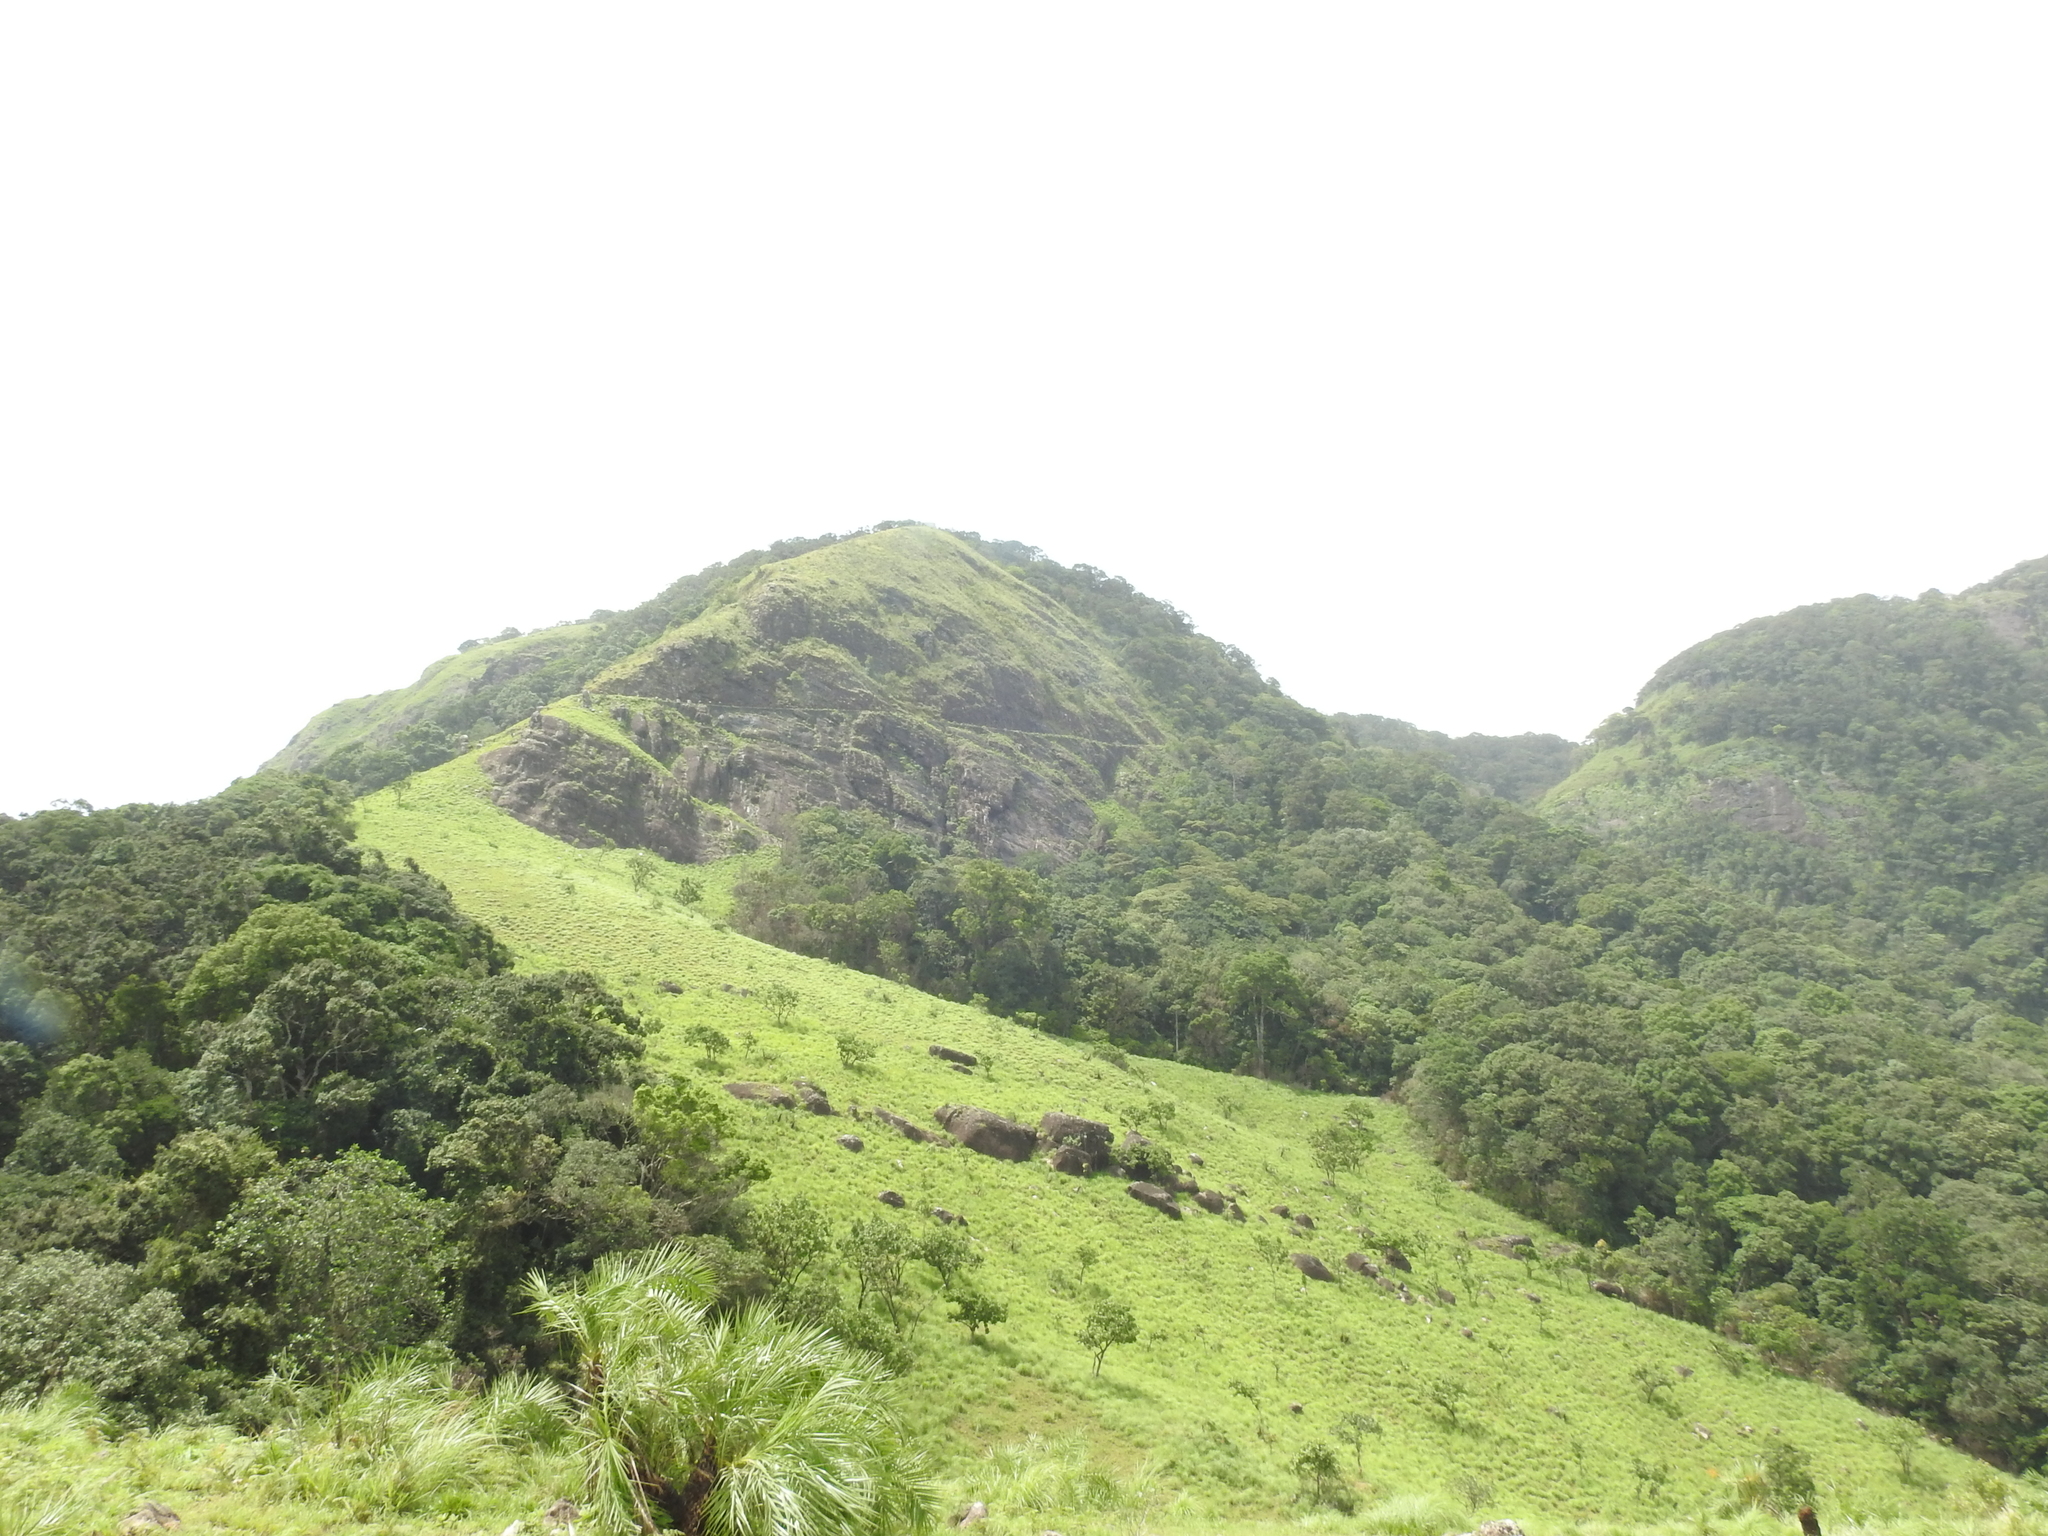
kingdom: Plantae
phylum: Tracheophyta
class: Liliopsida
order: Arecales
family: Arecaceae
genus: Phoenix
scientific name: Phoenix pusilla
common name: Flour palm
